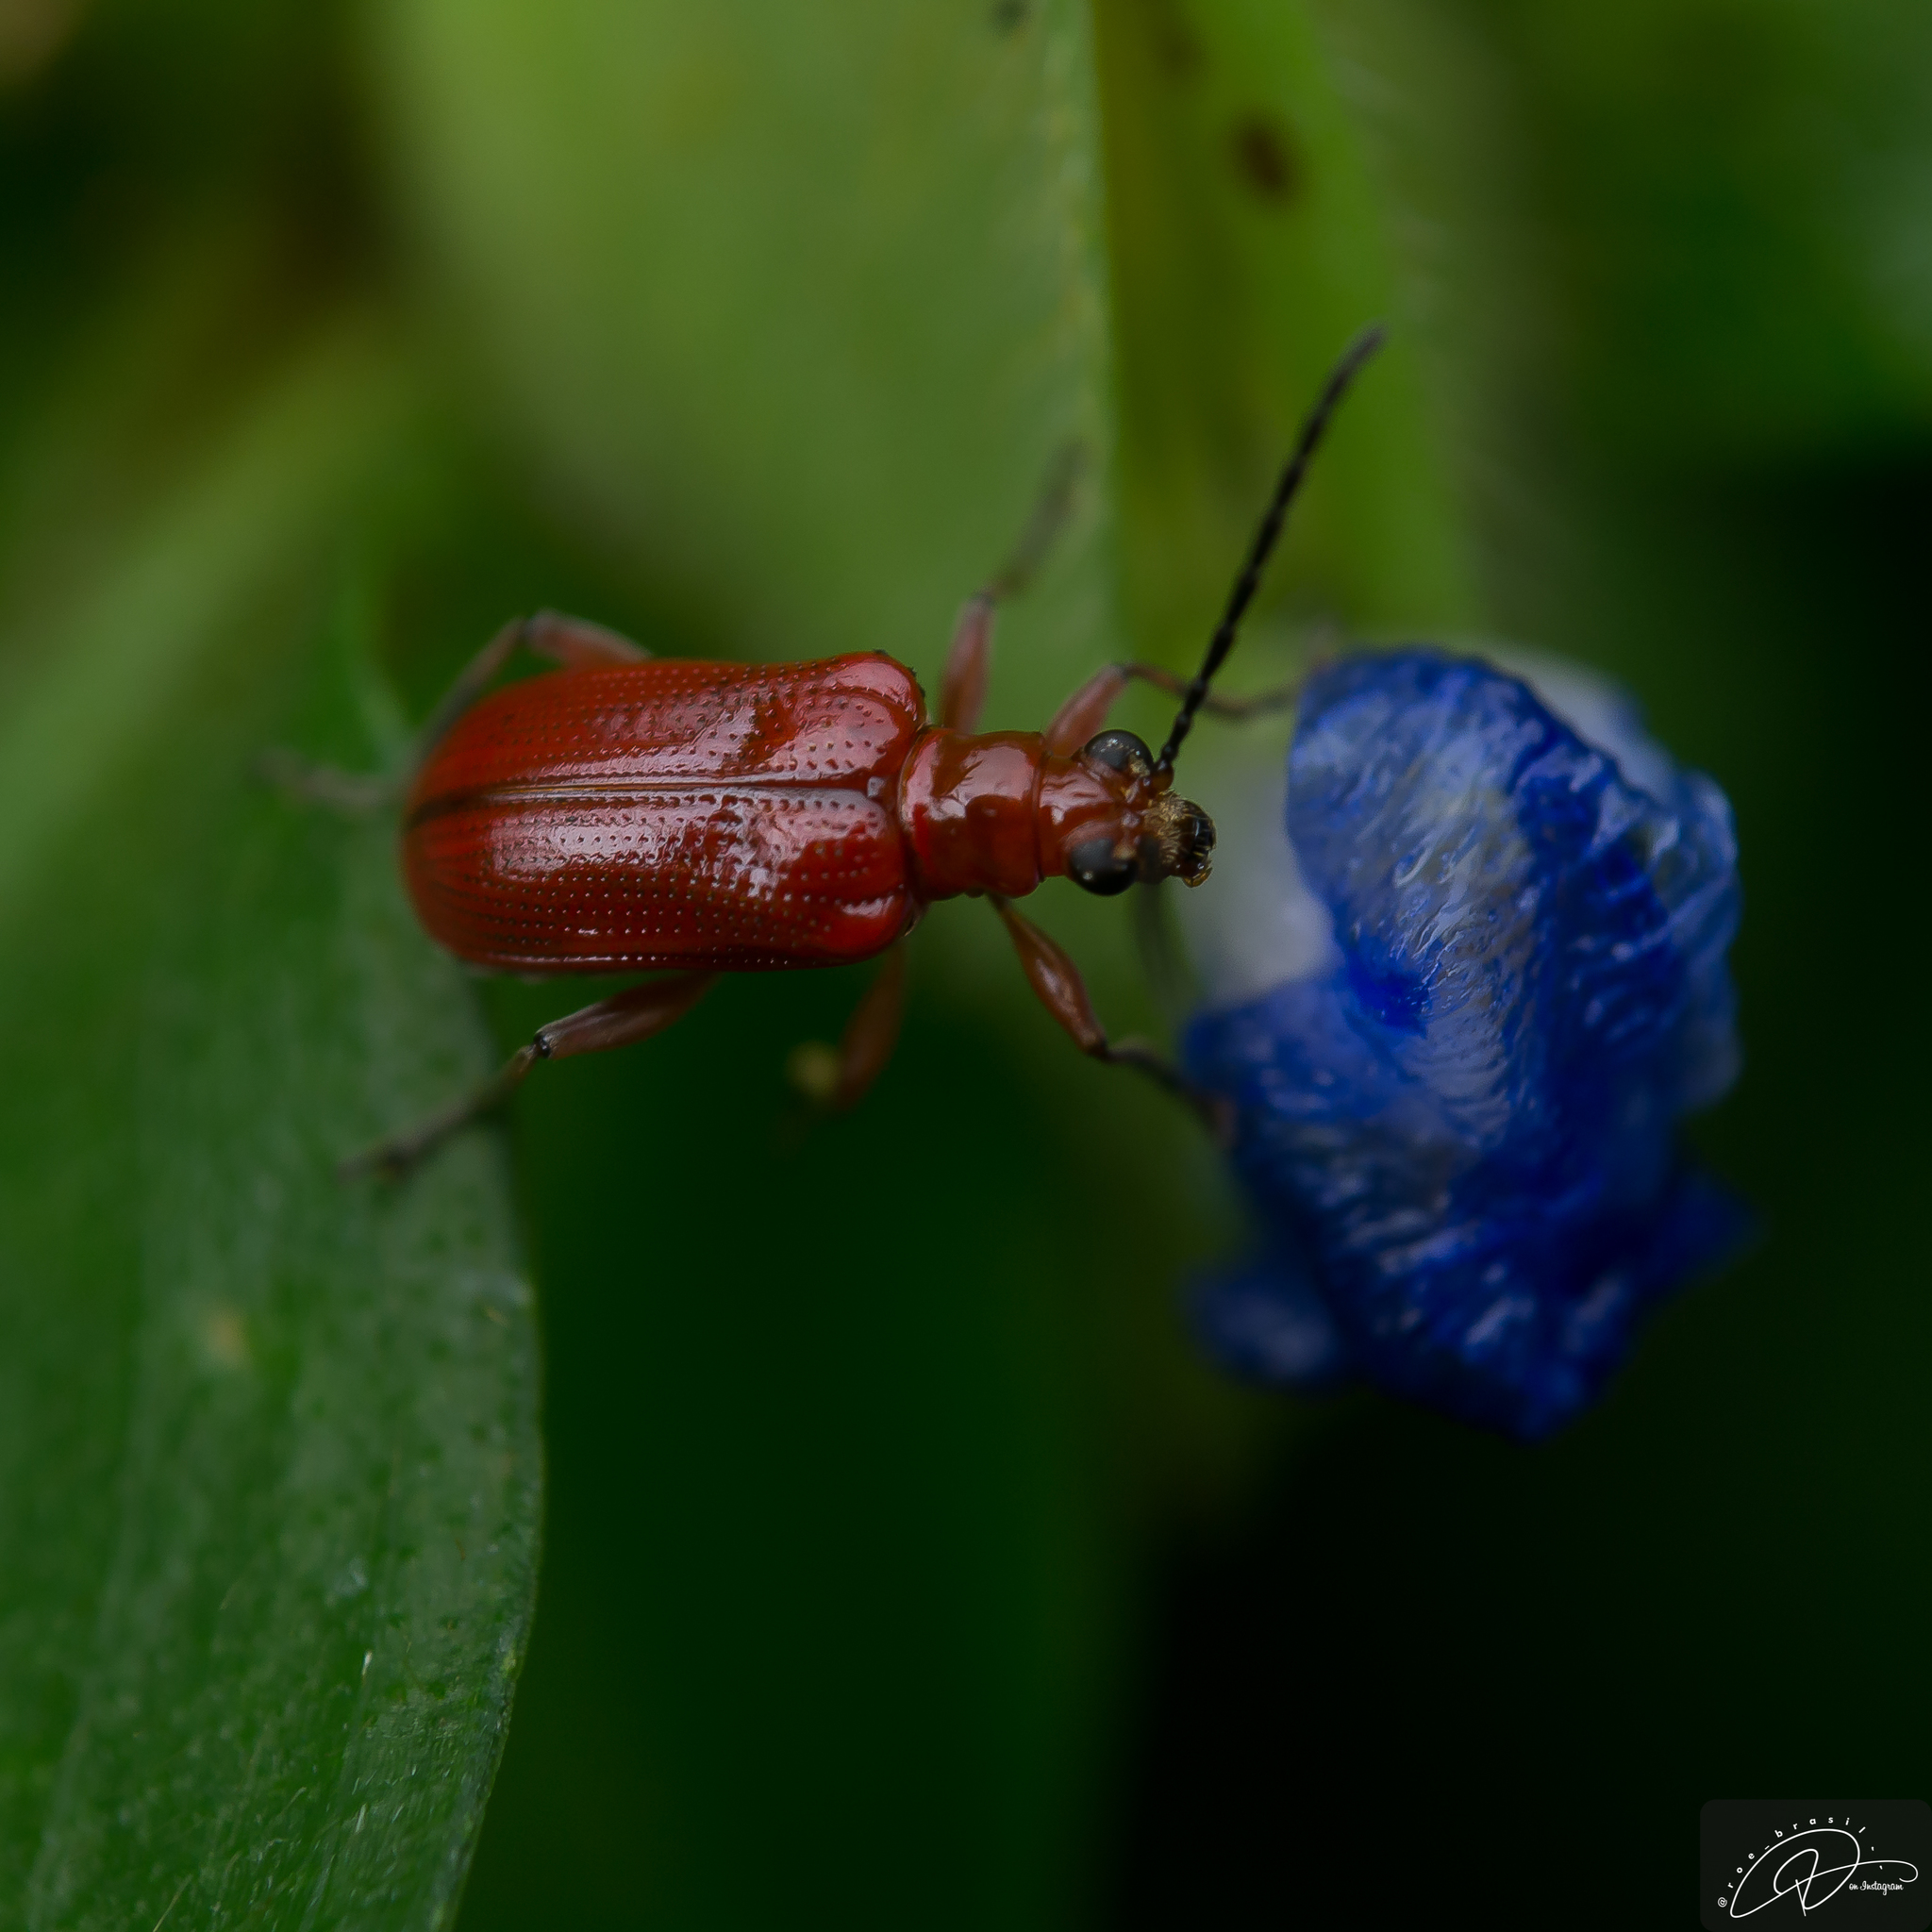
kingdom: Animalia
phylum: Arthropoda
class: Insecta
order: Coleoptera
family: Chrysomelidae
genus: Neolema
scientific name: Neolema
